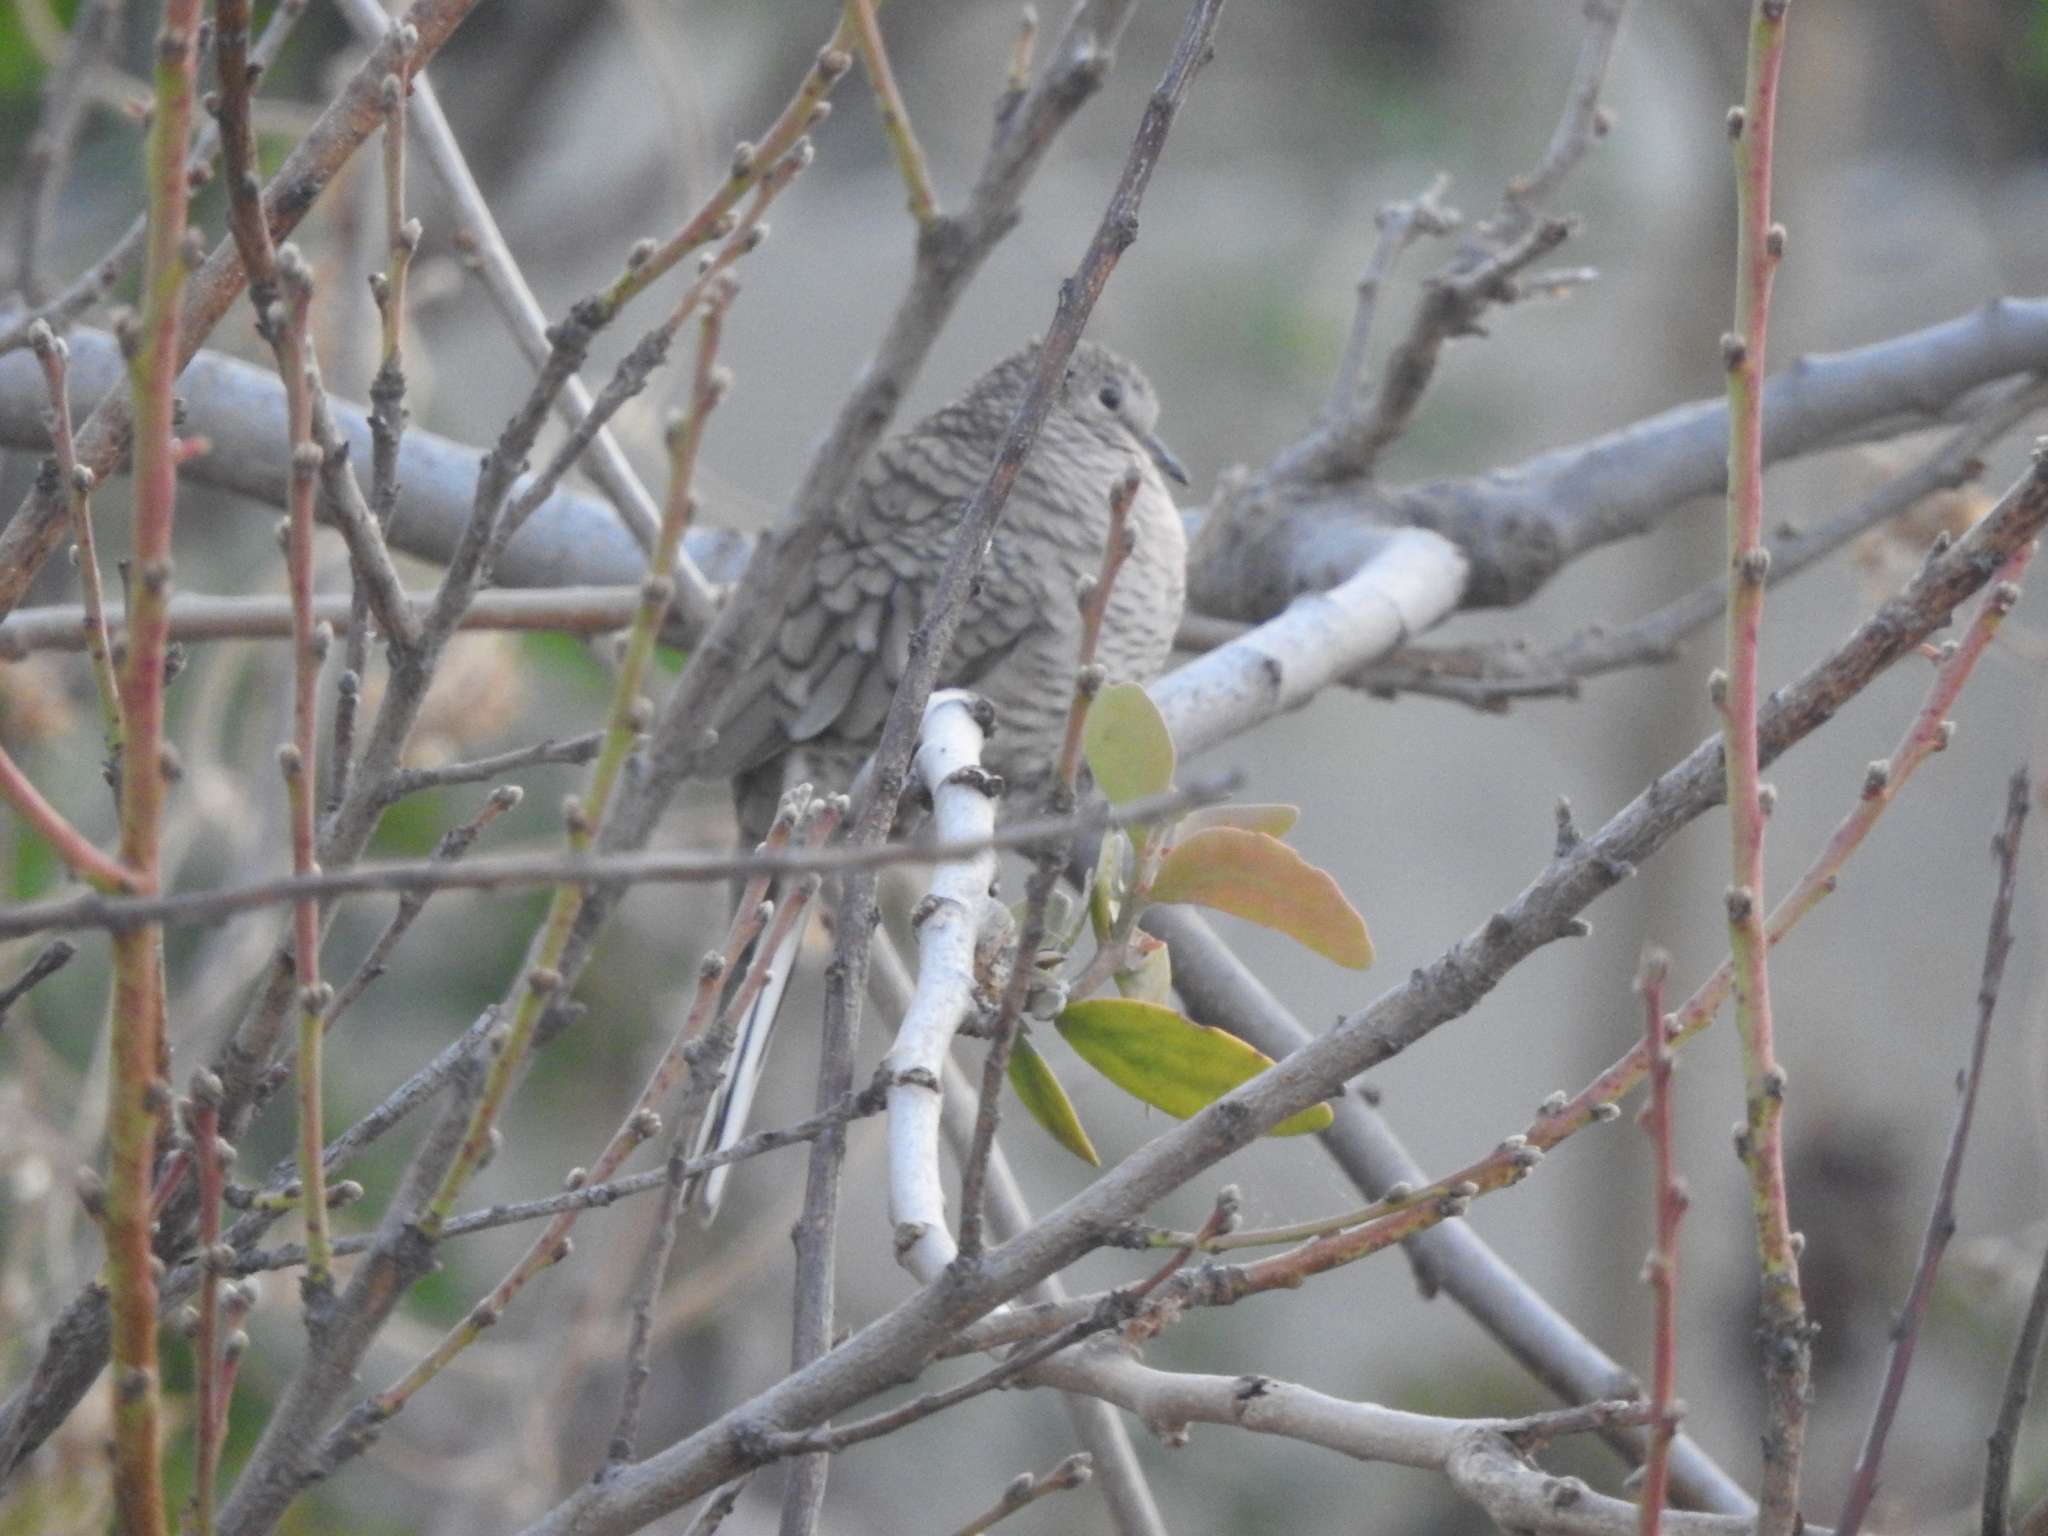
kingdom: Animalia
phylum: Chordata
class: Aves
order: Columbiformes
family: Columbidae
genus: Columbina
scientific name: Columbina inca
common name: Inca dove
